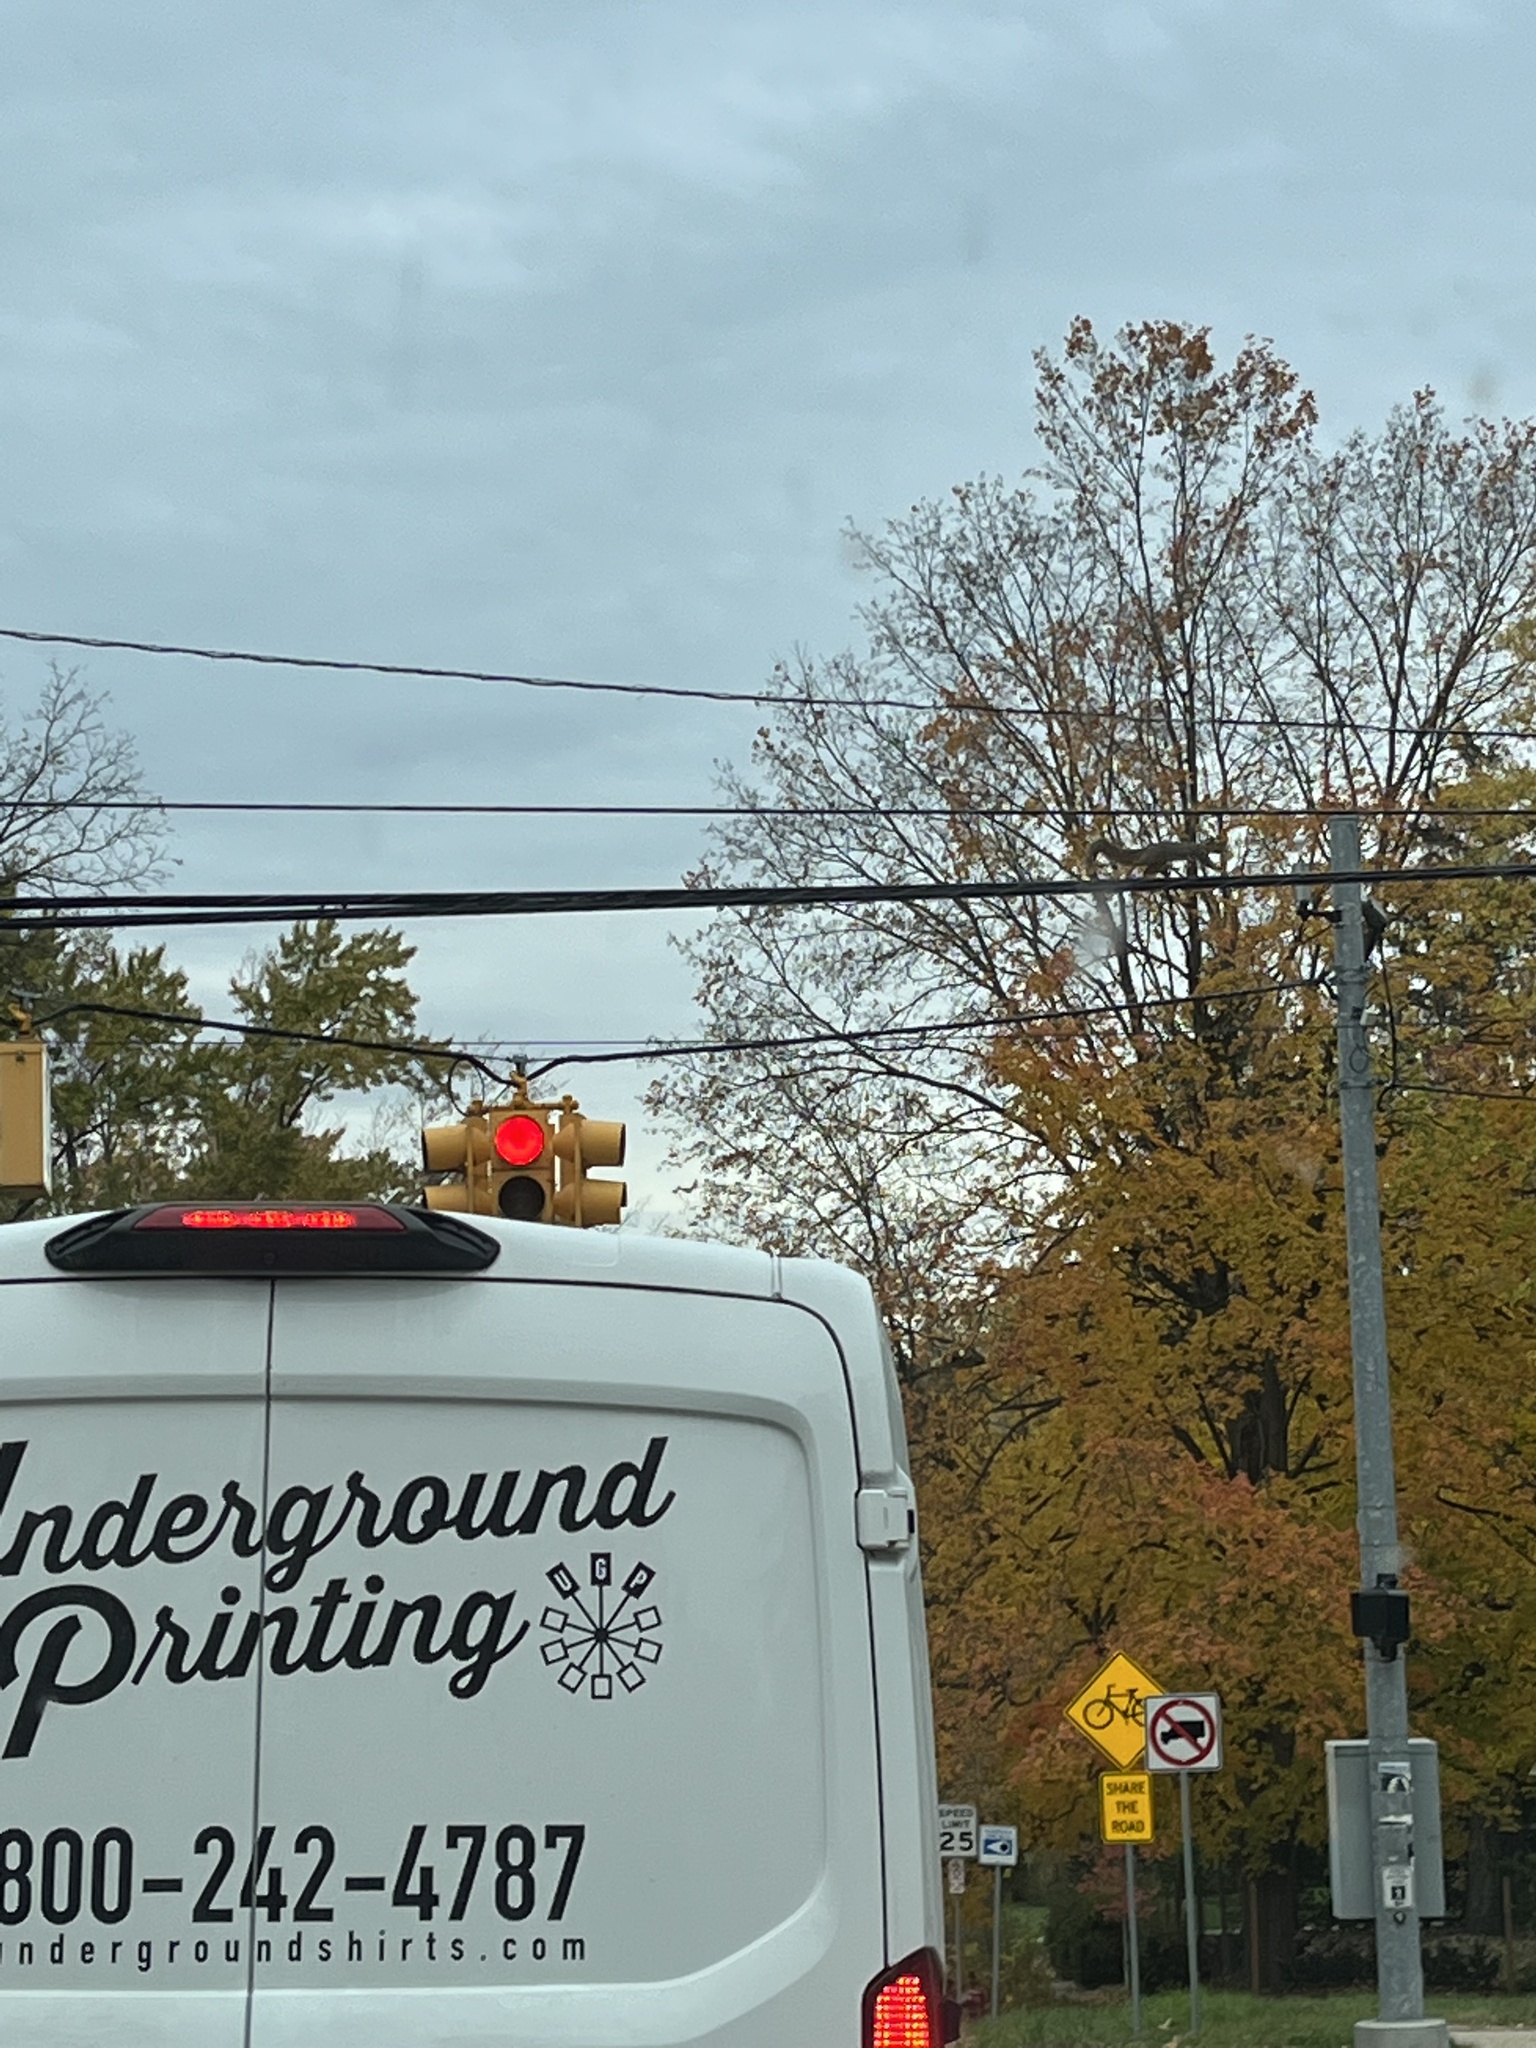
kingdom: Animalia
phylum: Chordata
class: Mammalia
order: Rodentia
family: Sciuridae
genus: Sciurus
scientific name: Sciurus niger
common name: Fox squirrel
